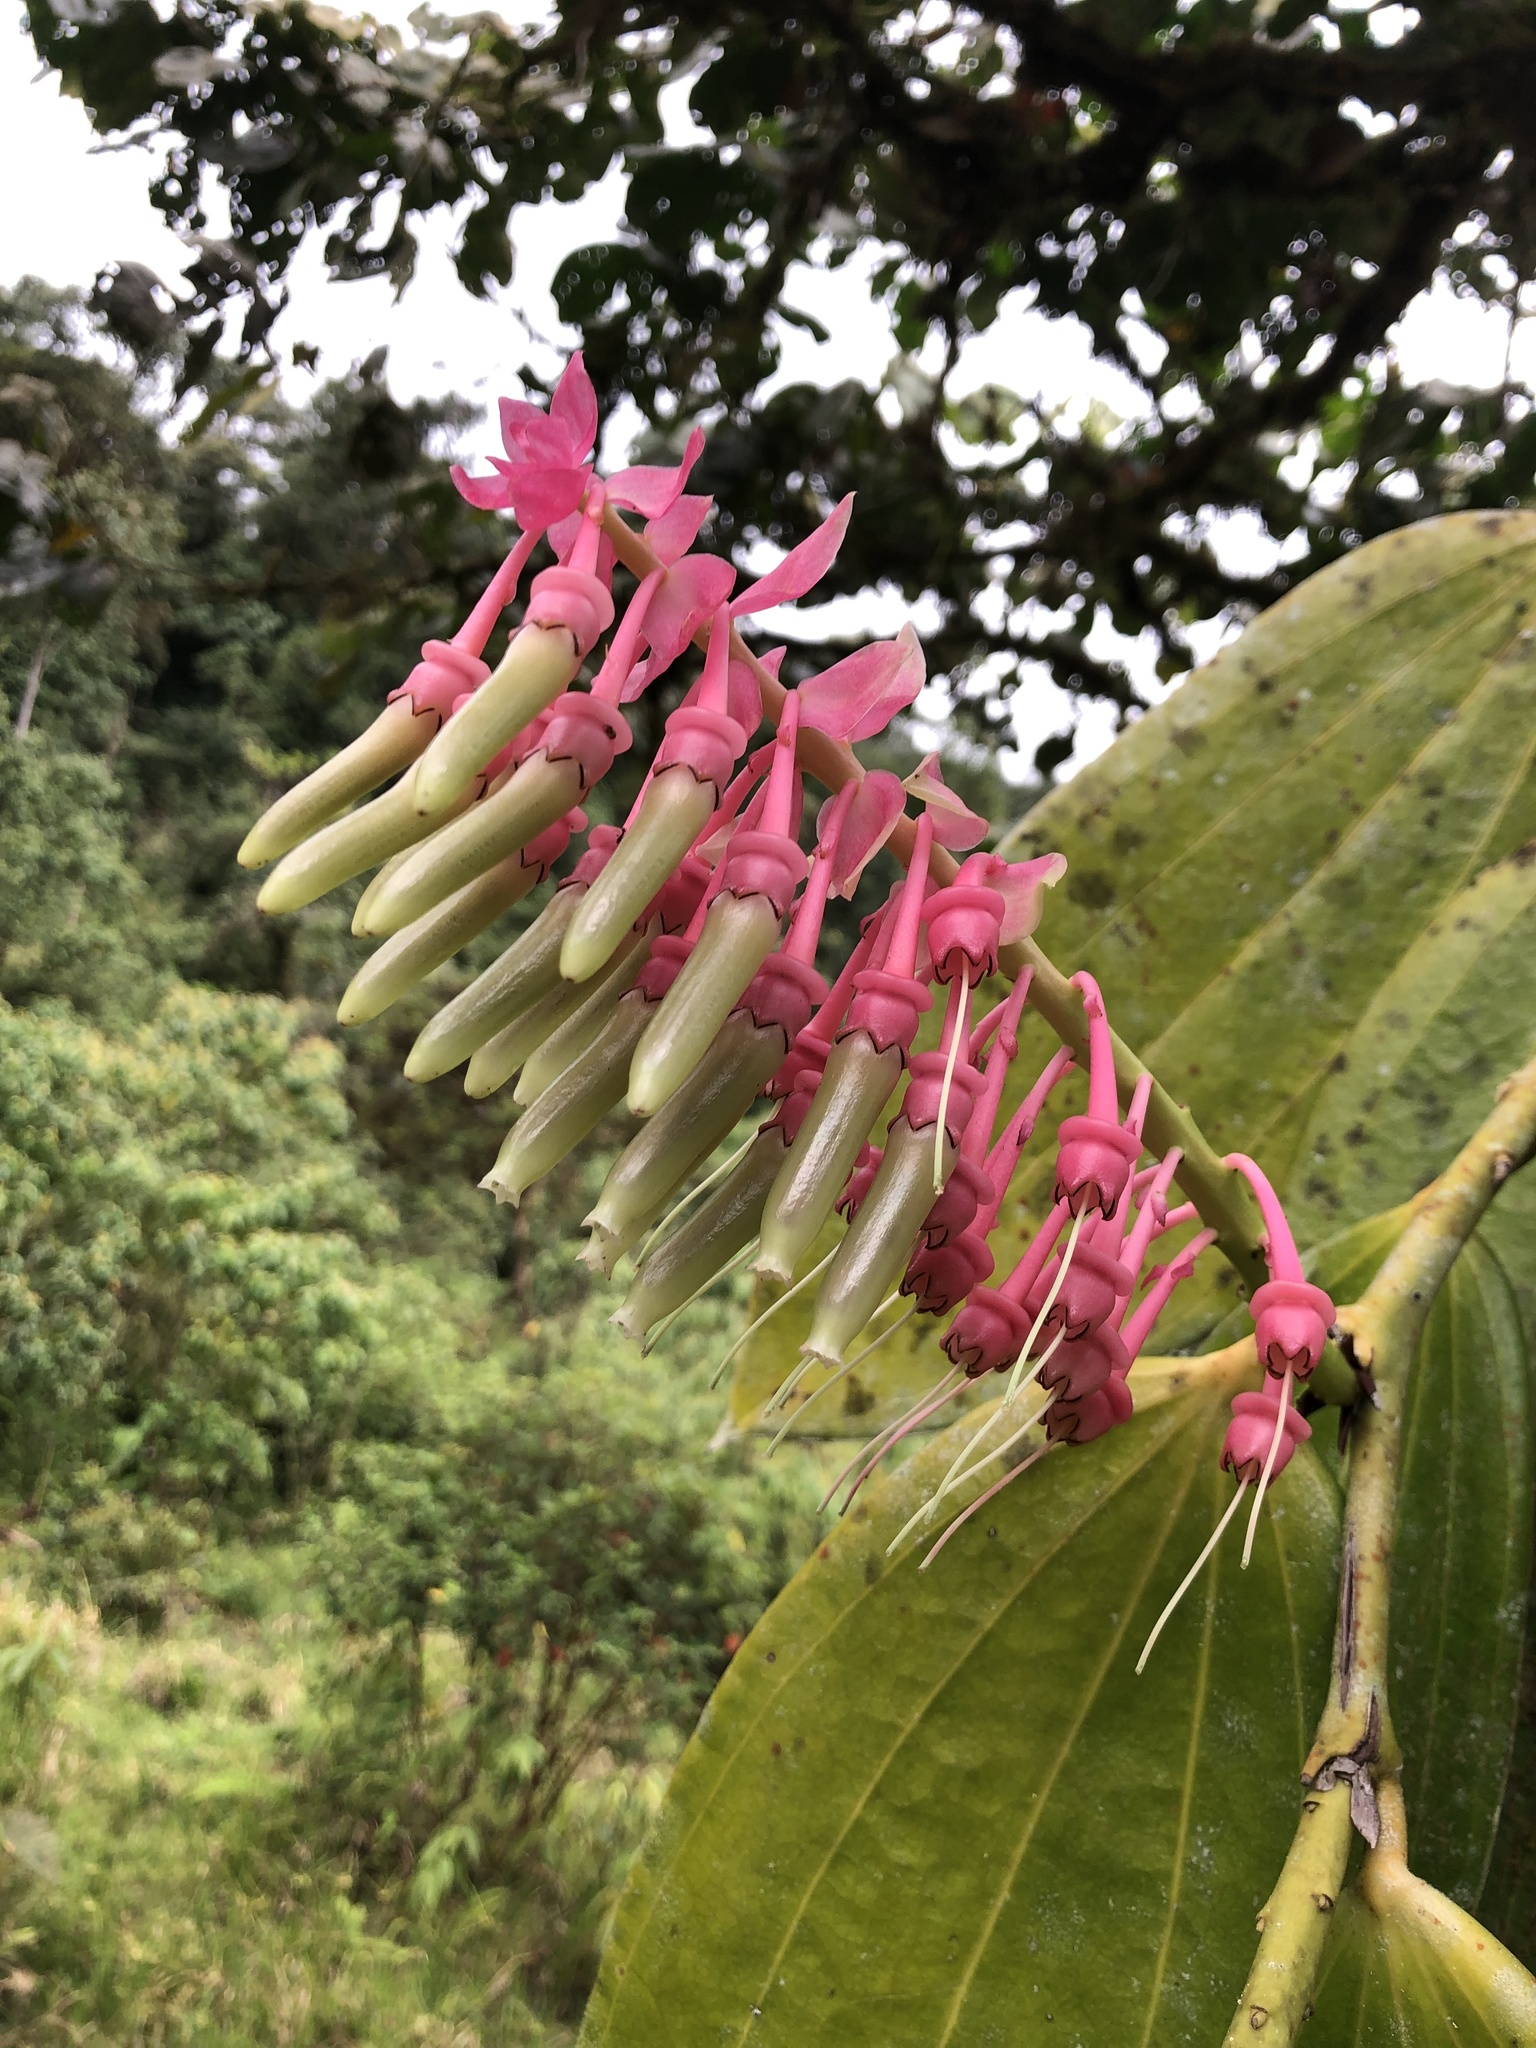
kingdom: Plantae
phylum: Tracheophyta
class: Magnoliopsida
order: Ericales
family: Ericaceae
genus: Cavendishia
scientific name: Cavendishia grandifolia
